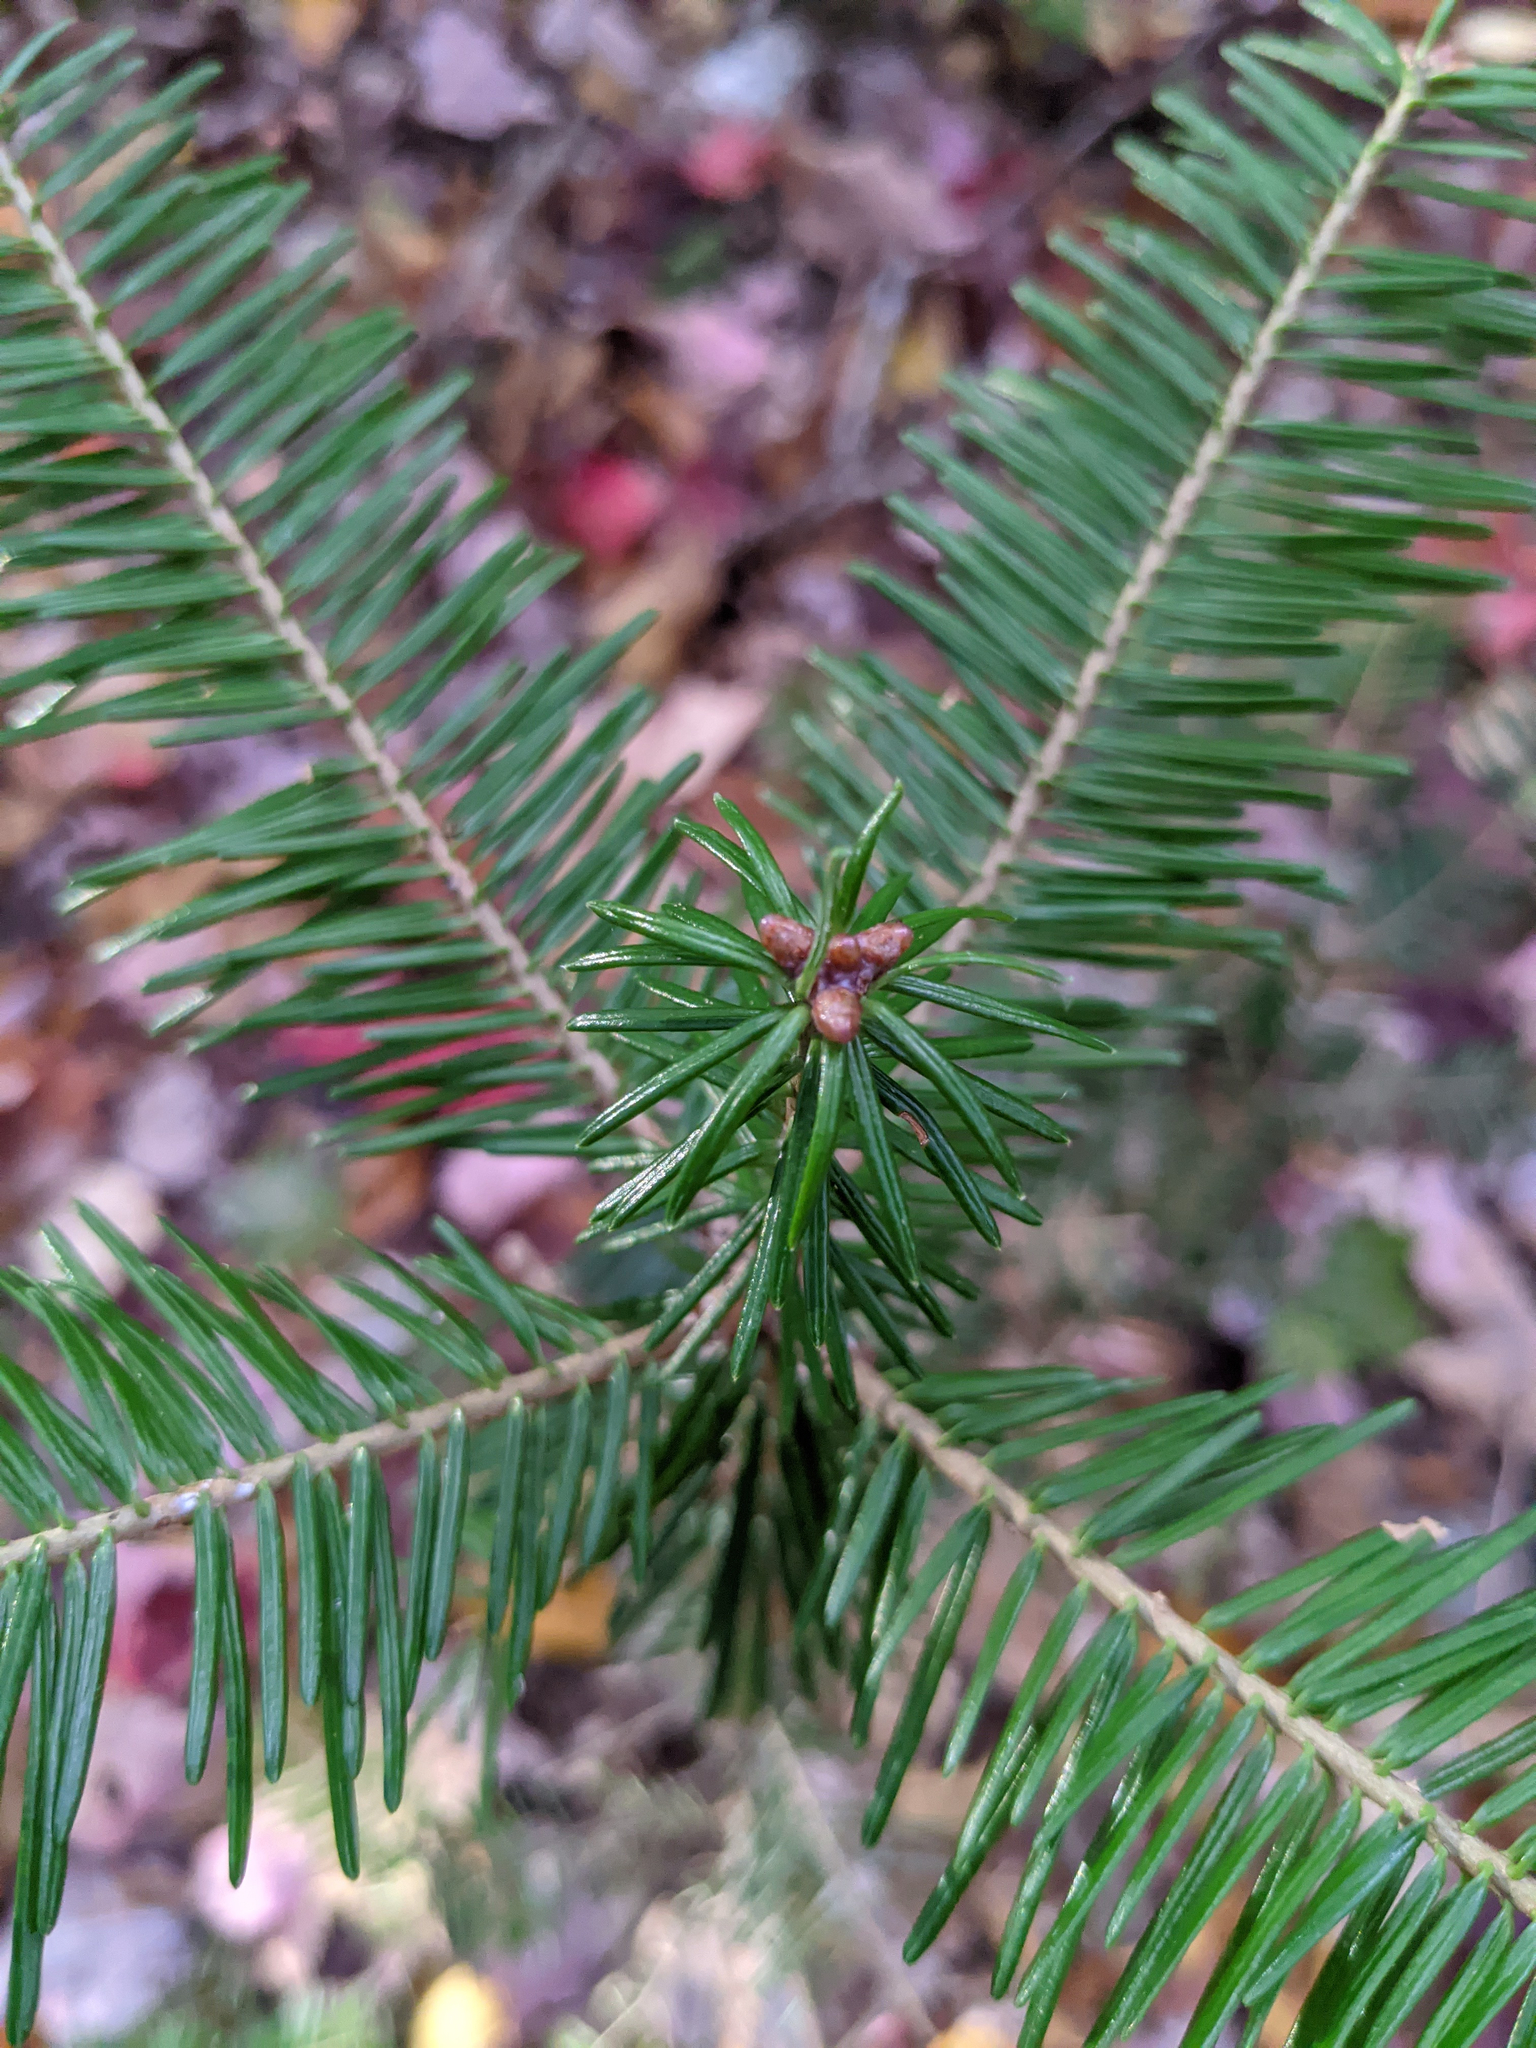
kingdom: Plantae
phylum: Tracheophyta
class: Pinopsida
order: Pinales
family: Pinaceae
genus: Abies
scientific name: Abies balsamea
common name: Balsam fir
